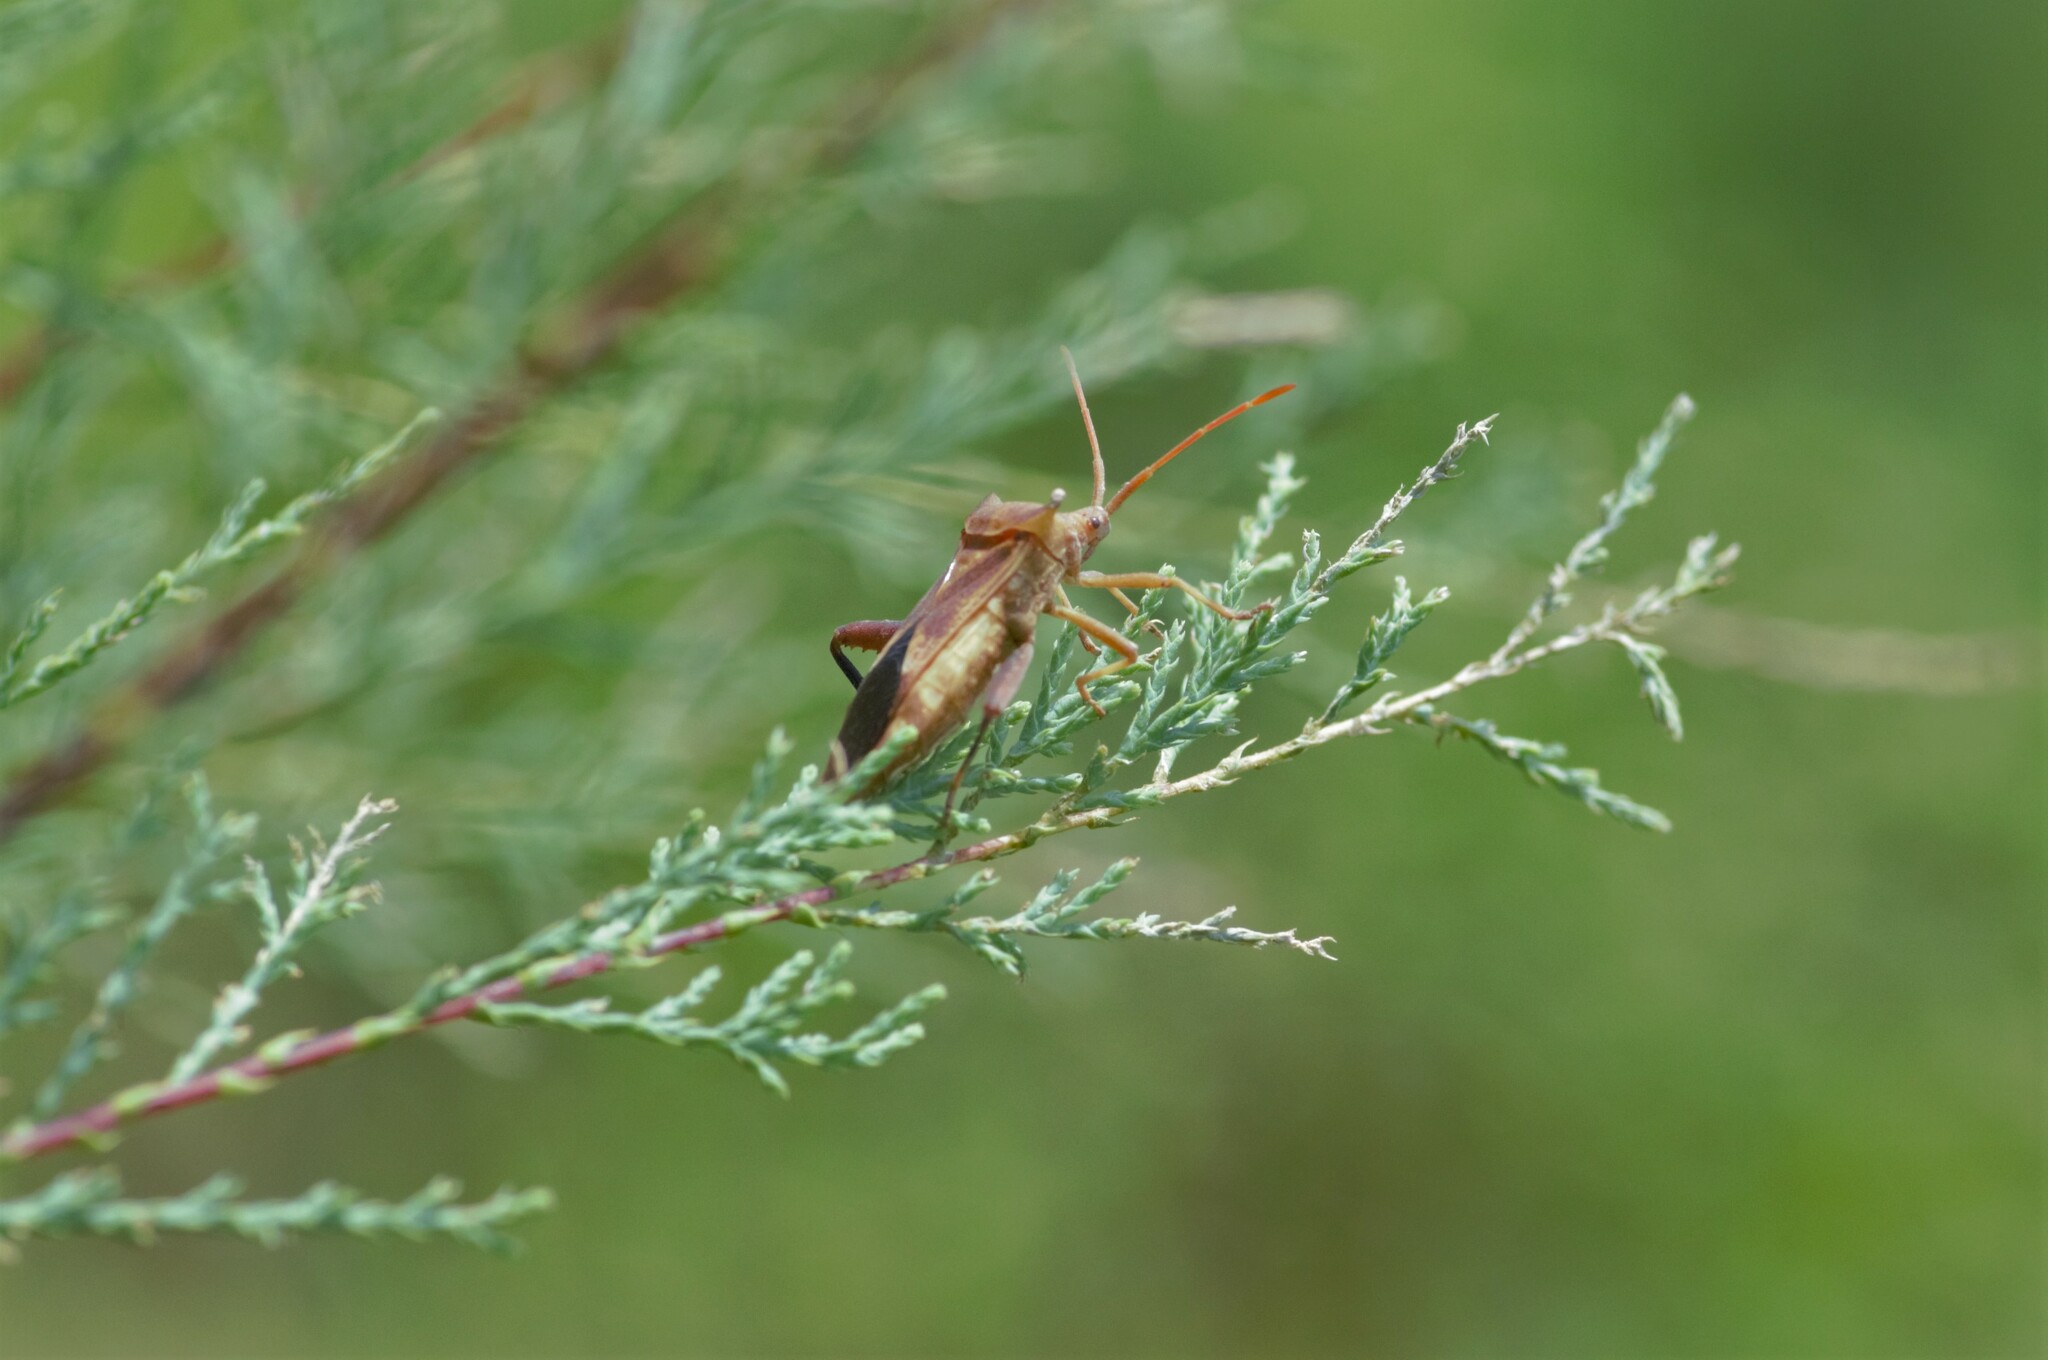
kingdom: Animalia
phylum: Arthropoda
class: Insecta
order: Hemiptera
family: Coreidae
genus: Mozena
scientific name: Mozena arizonensis
